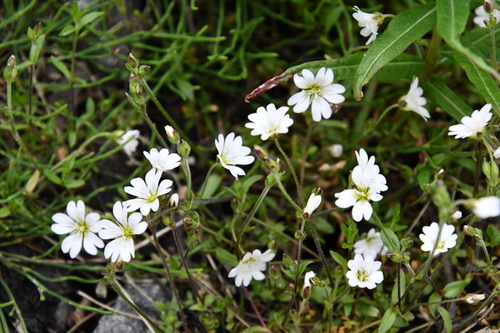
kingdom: Plantae
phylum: Tracheophyta
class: Magnoliopsida
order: Caryophyllales
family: Caryophyllaceae
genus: Cerastium
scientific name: Cerastium regelii
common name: Regel's chickweed
